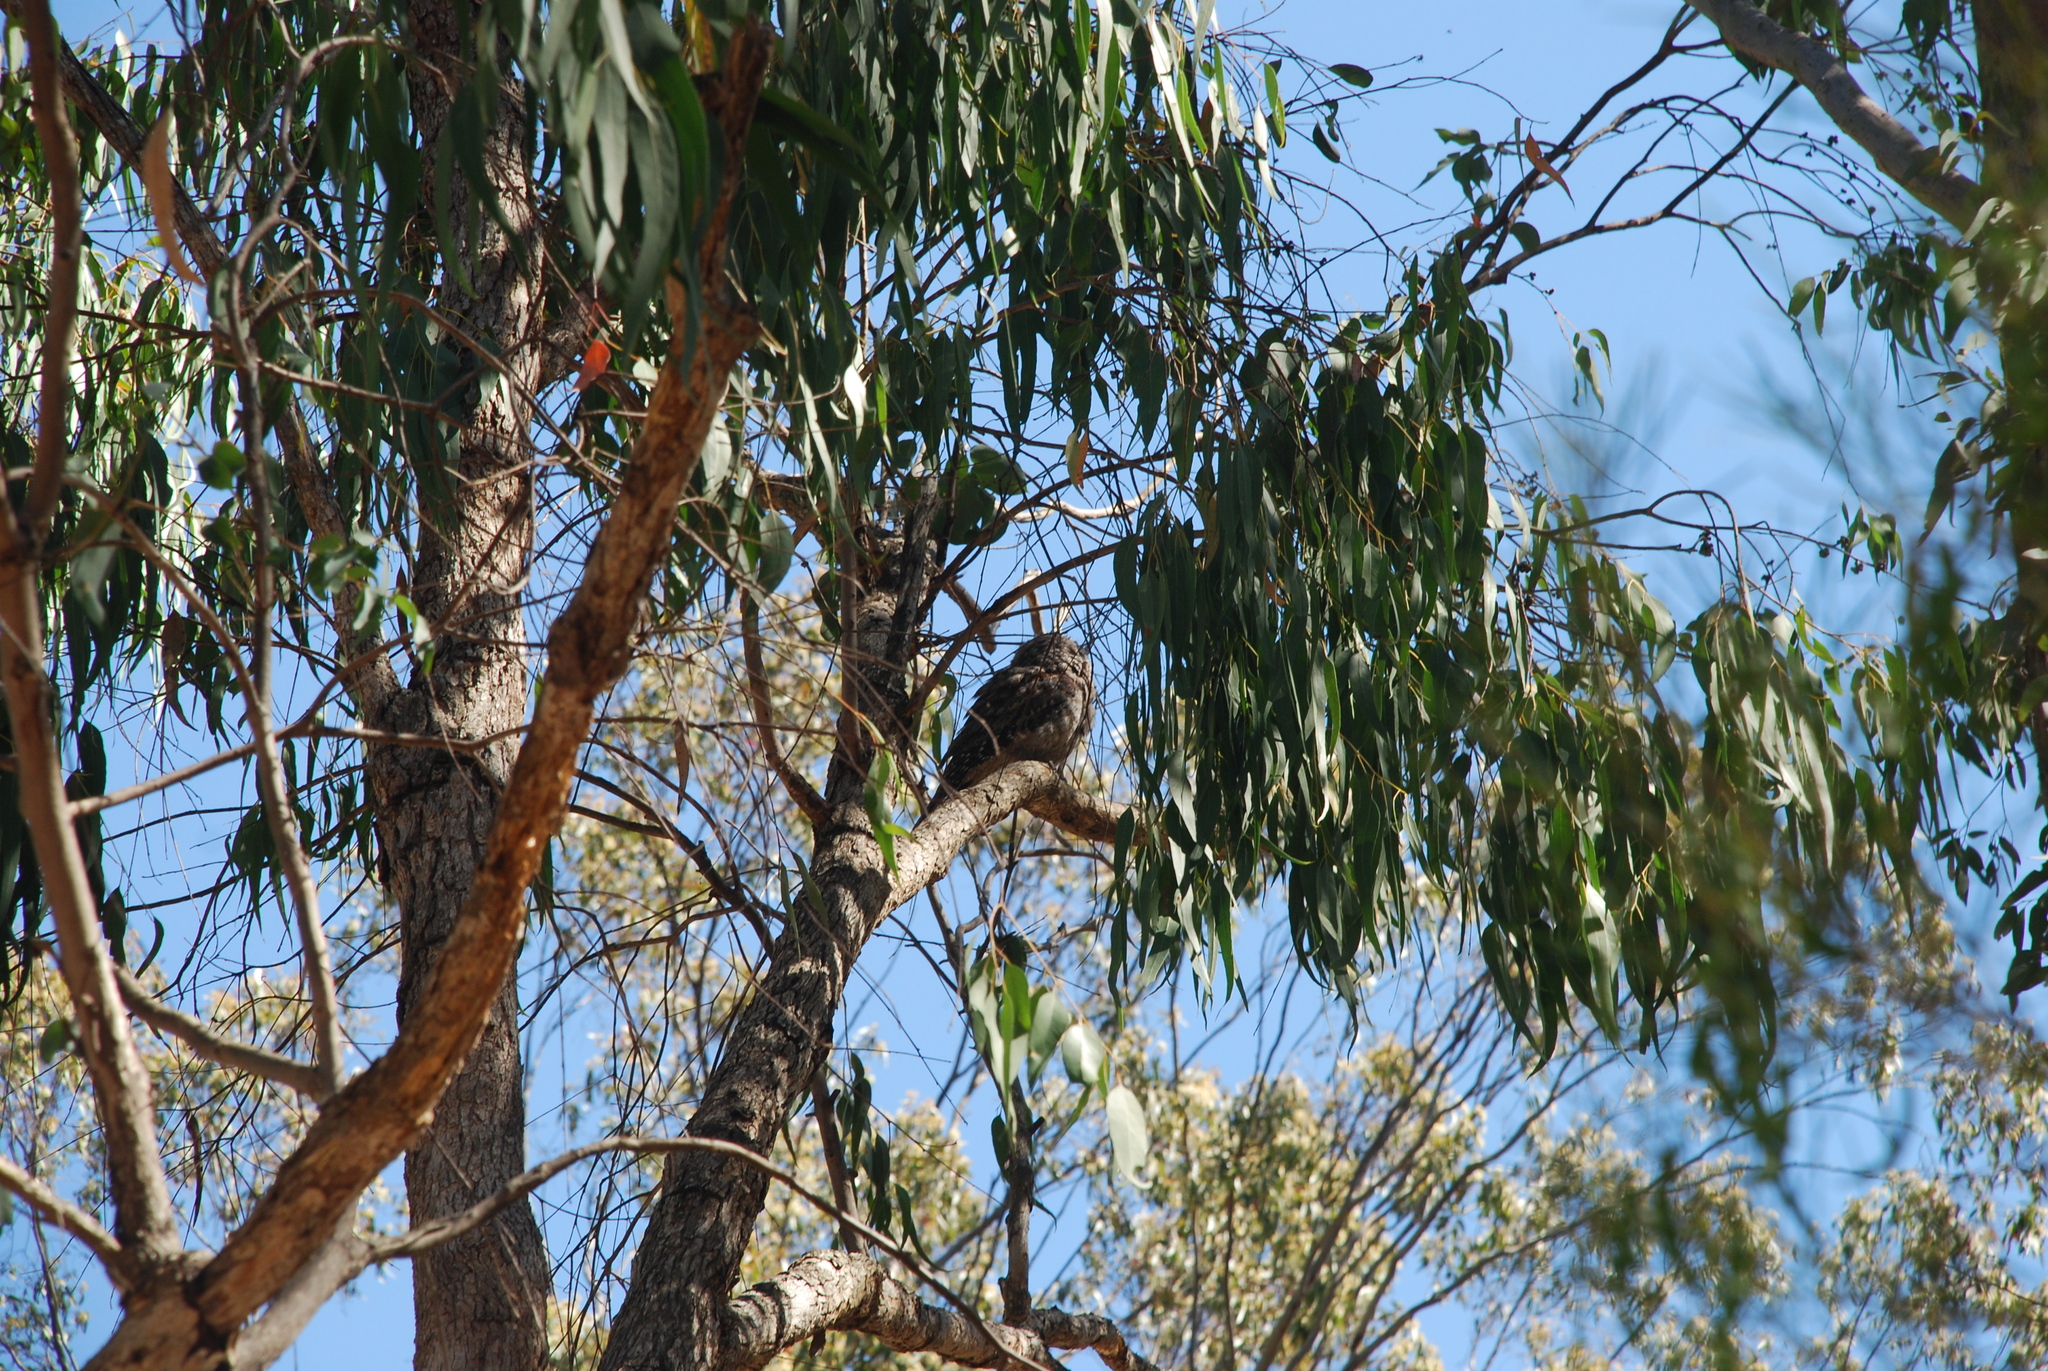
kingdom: Animalia
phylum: Chordata
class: Aves
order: Caprimulgiformes
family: Podargidae
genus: Podargus
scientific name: Podargus strigoides
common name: Tawny frogmouth
